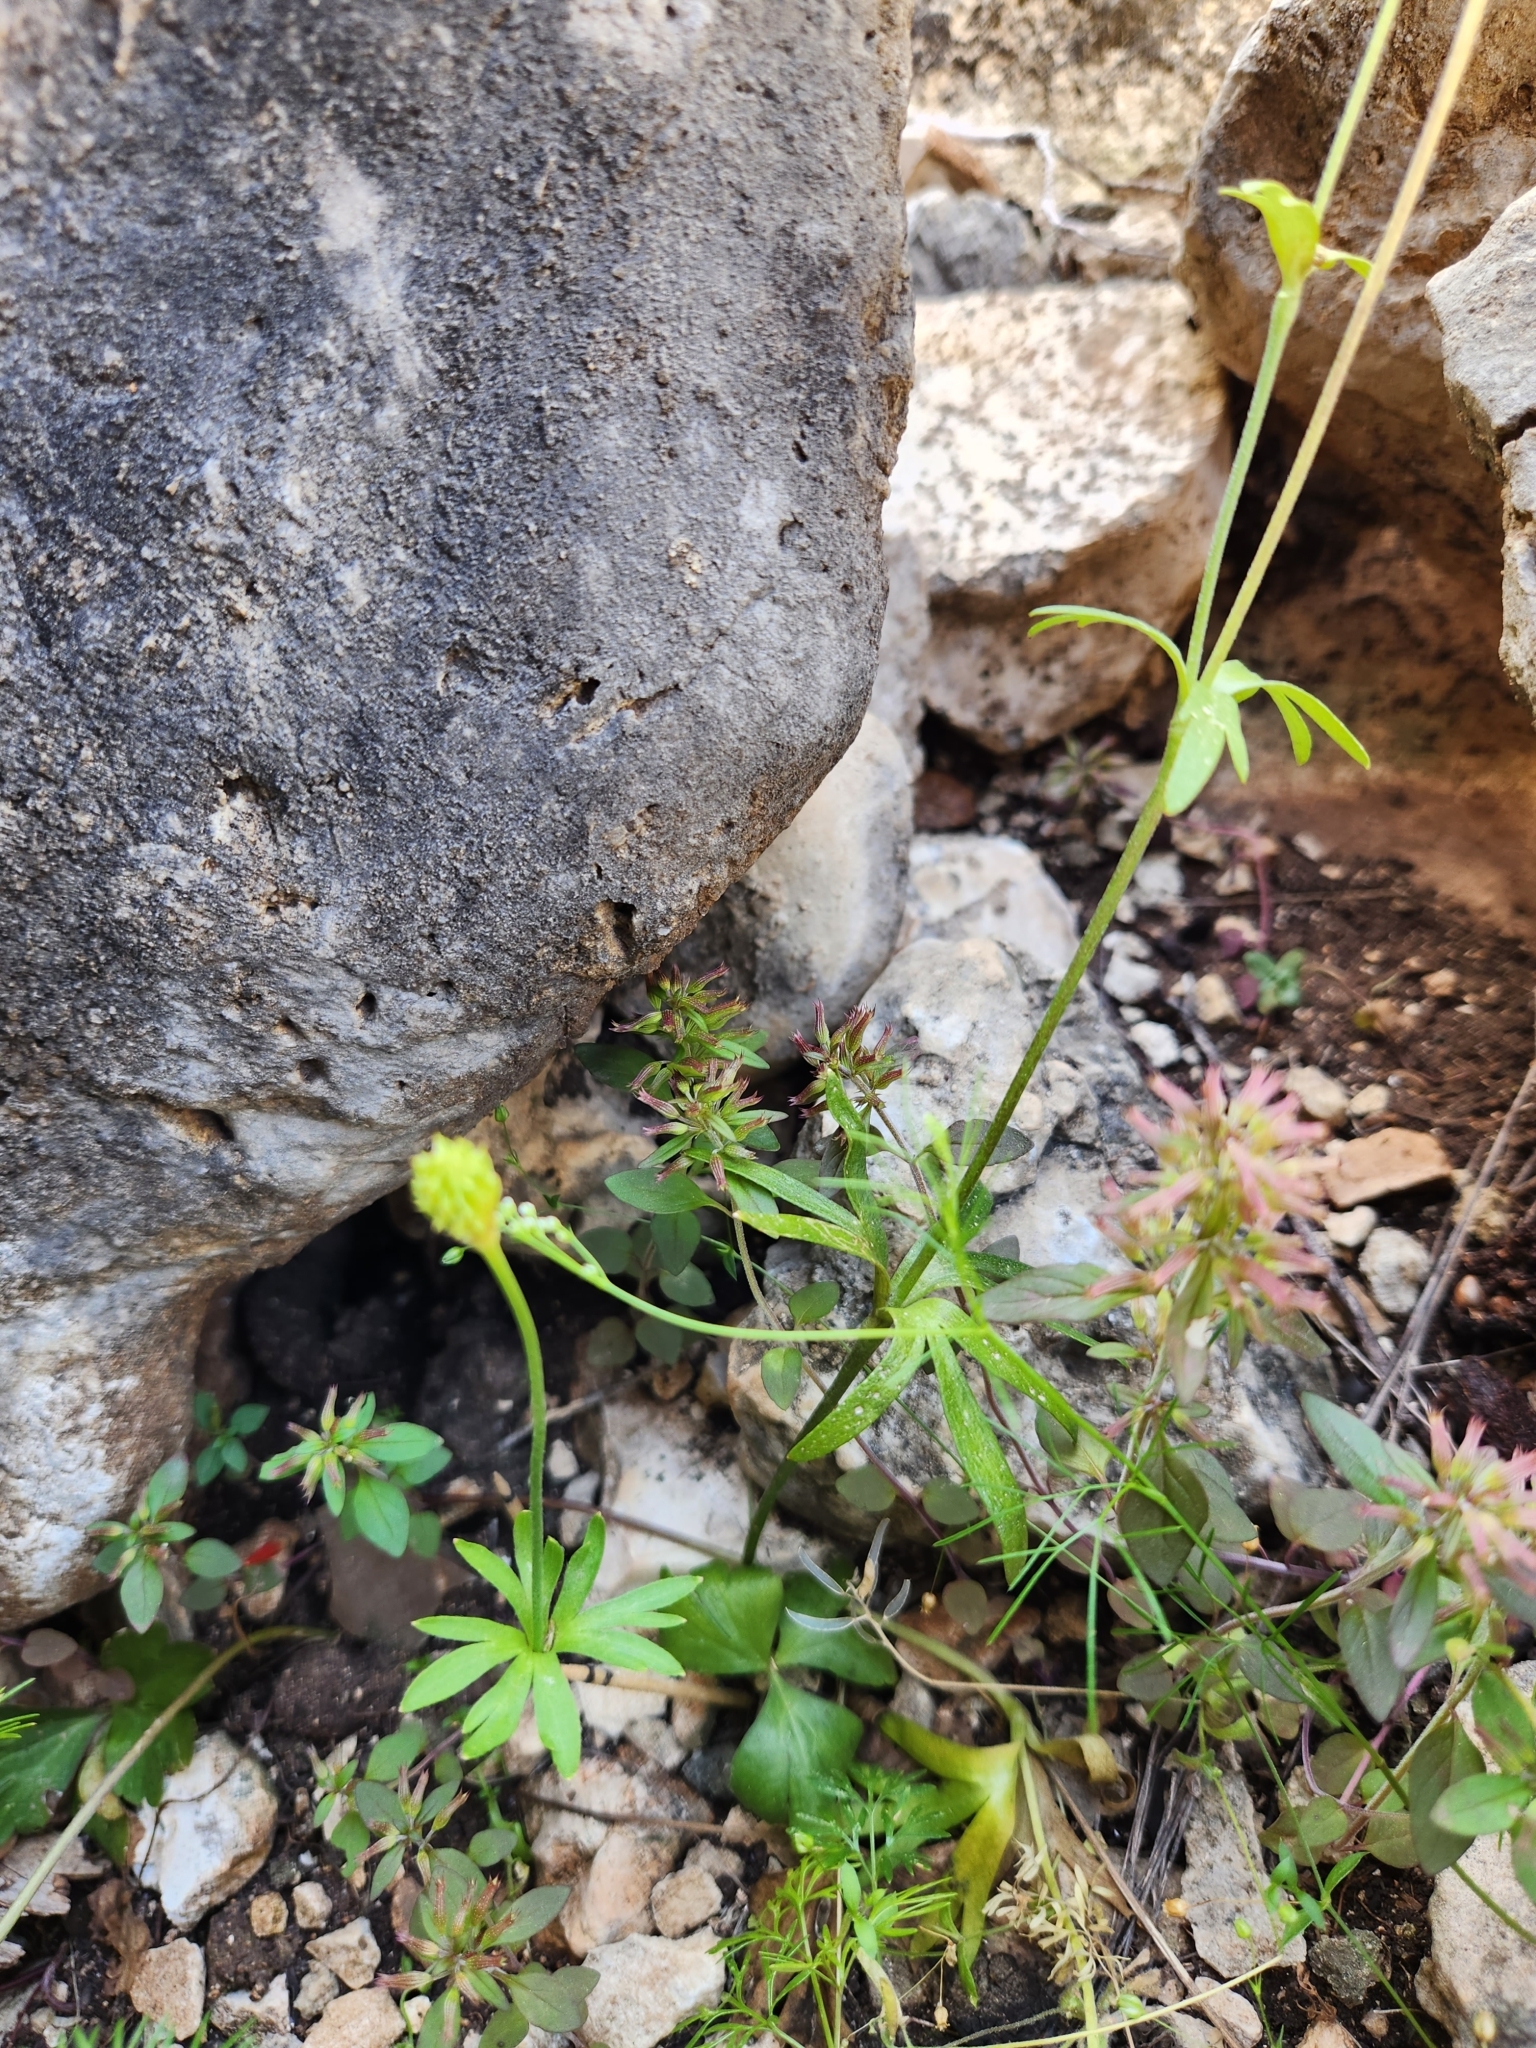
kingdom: Plantae
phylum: Tracheophyta
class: Magnoliopsida
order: Ranunculales
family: Ranunculaceae
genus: Anemone
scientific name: Anemone edwardsiana
